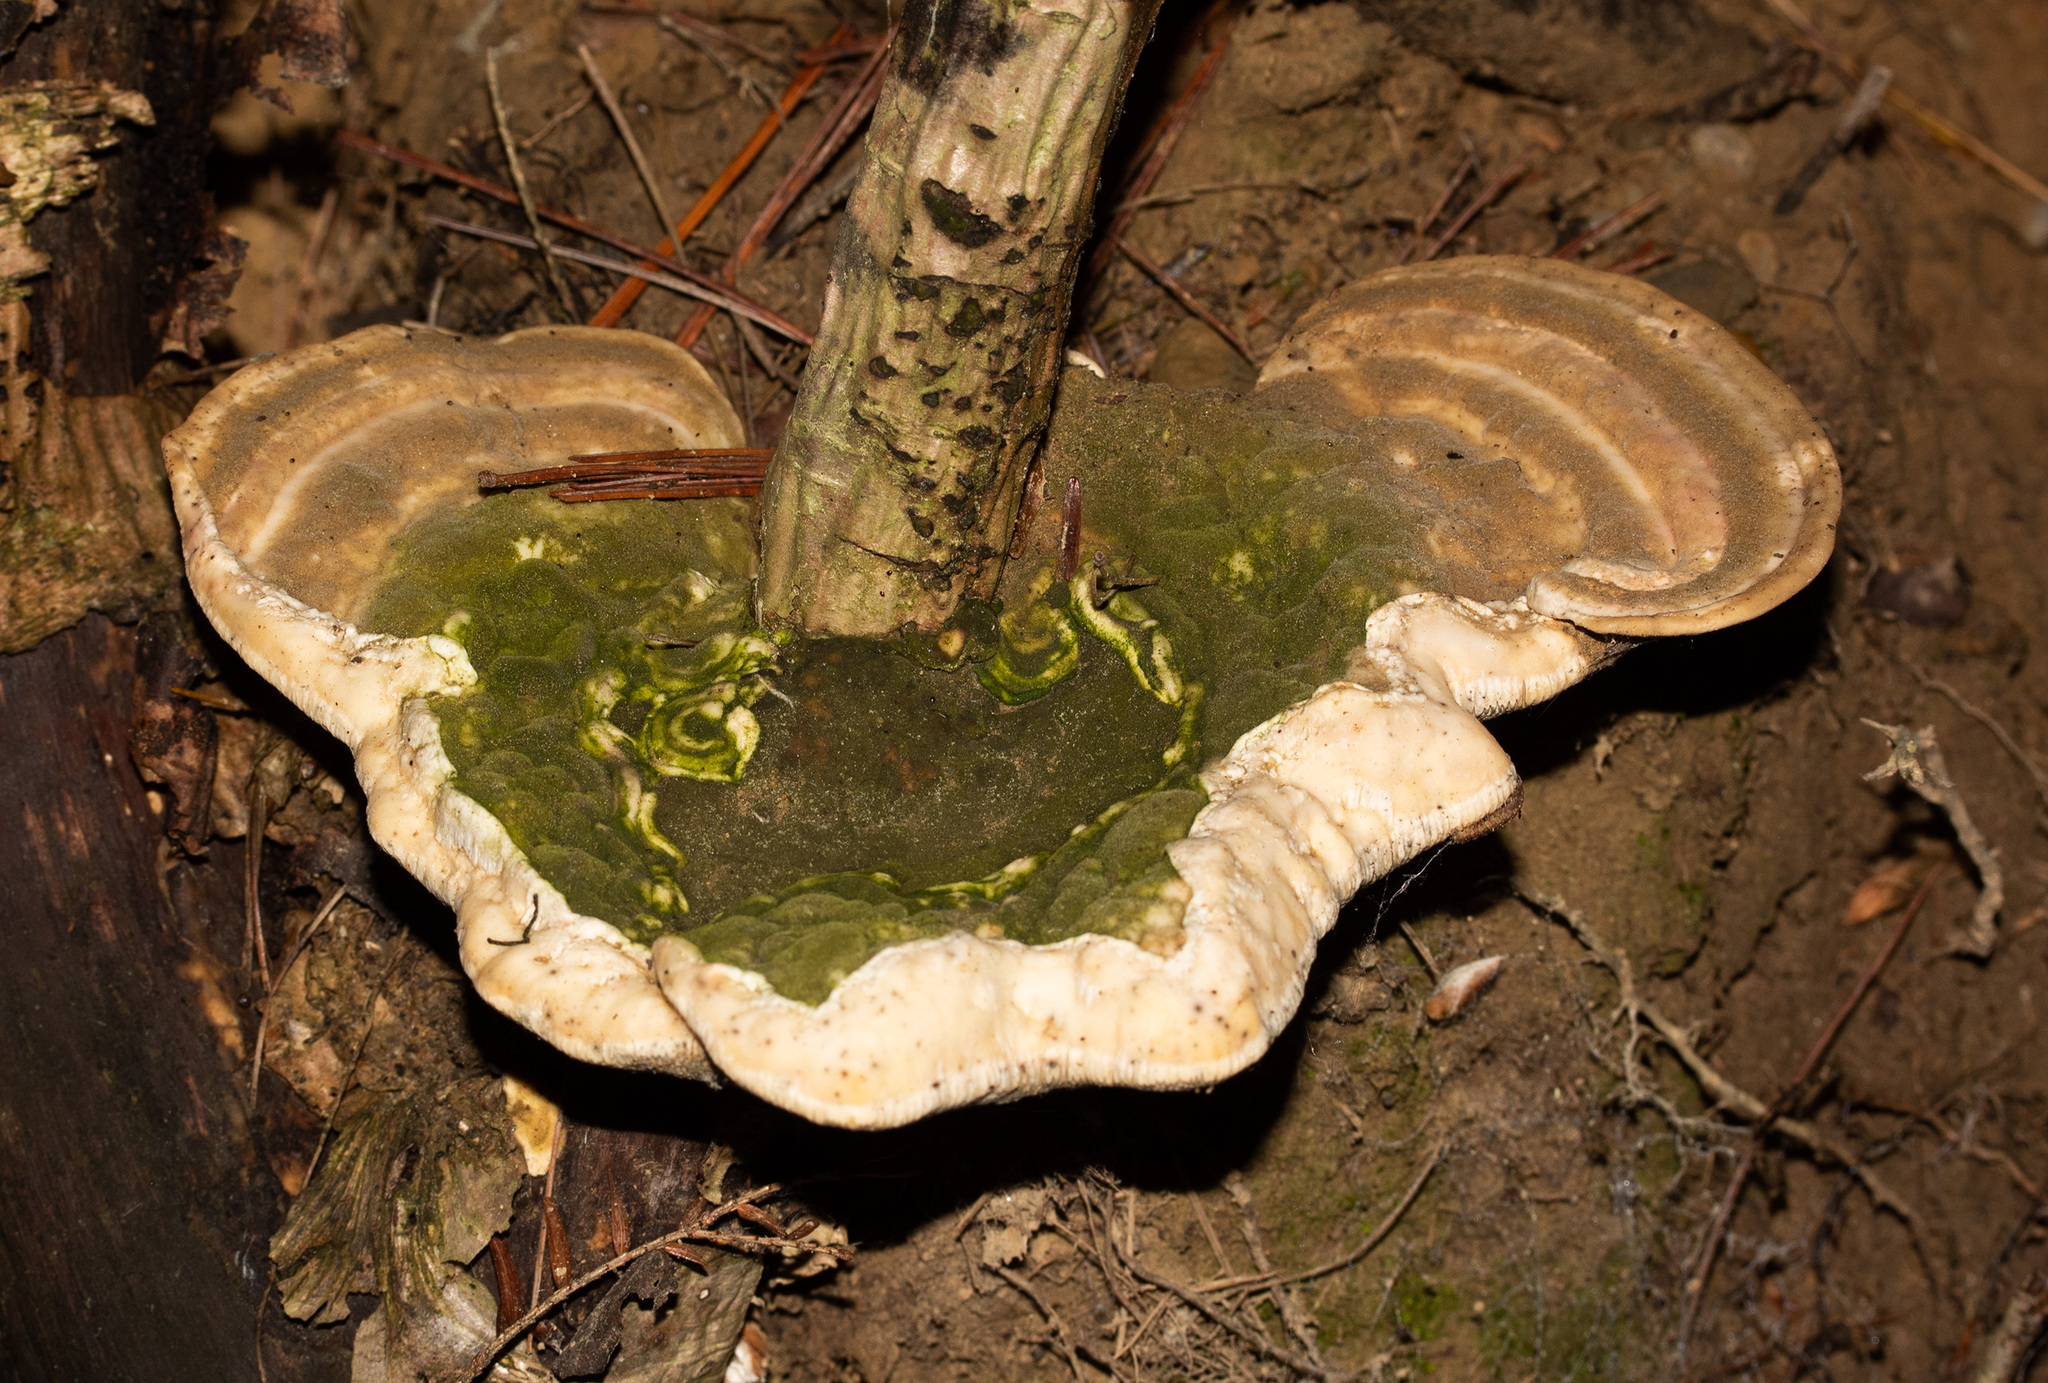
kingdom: Fungi
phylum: Basidiomycota
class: Agaricomycetes
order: Polyporales
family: Polyporaceae
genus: Trametes
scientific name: Trametes gibbosa
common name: Lumpy bracket
